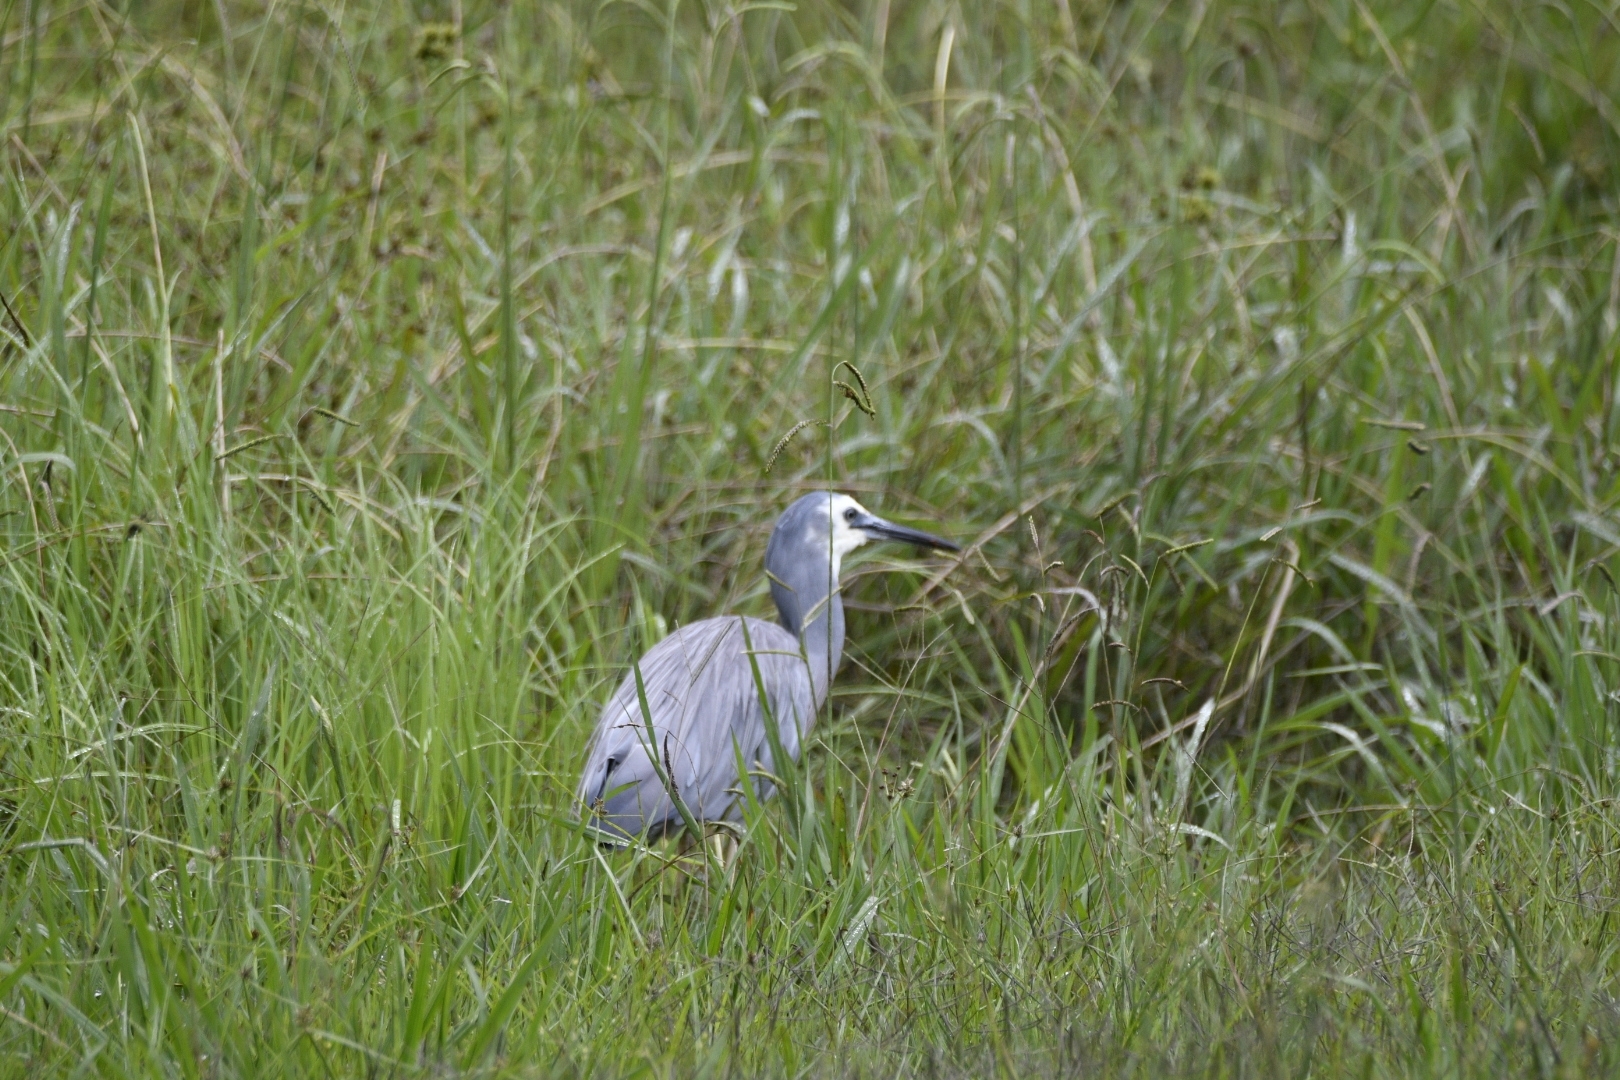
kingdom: Animalia
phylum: Chordata
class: Aves
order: Pelecaniformes
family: Ardeidae
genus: Egretta
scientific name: Egretta novaehollandiae
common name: White-faced heron
